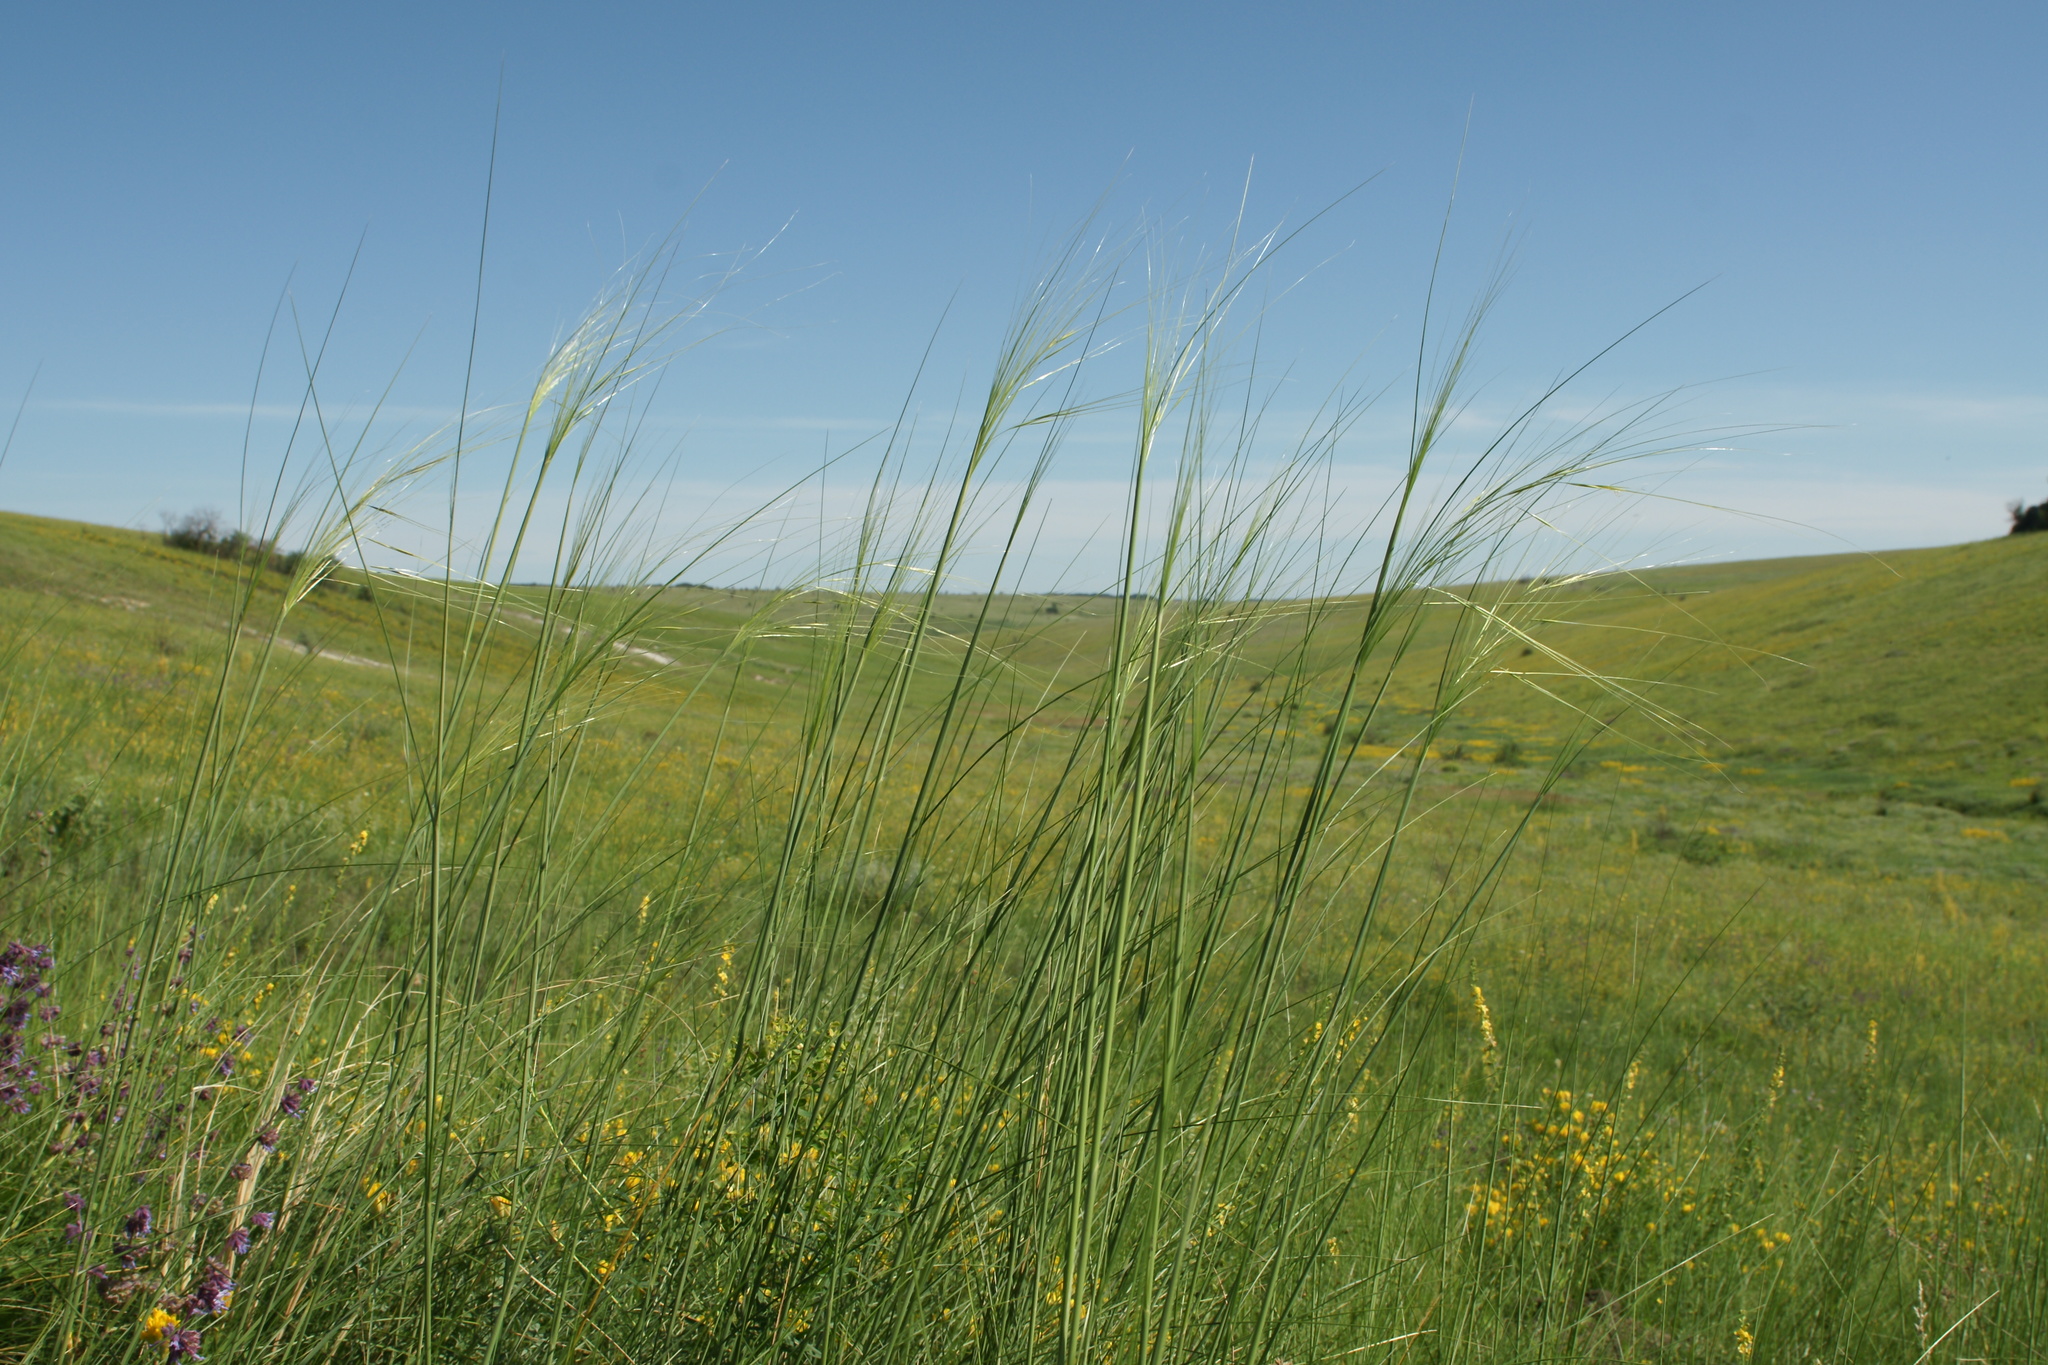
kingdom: Plantae
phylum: Tracheophyta
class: Liliopsida
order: Poales
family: Poaceae
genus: Stipa
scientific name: Stipa capillata
